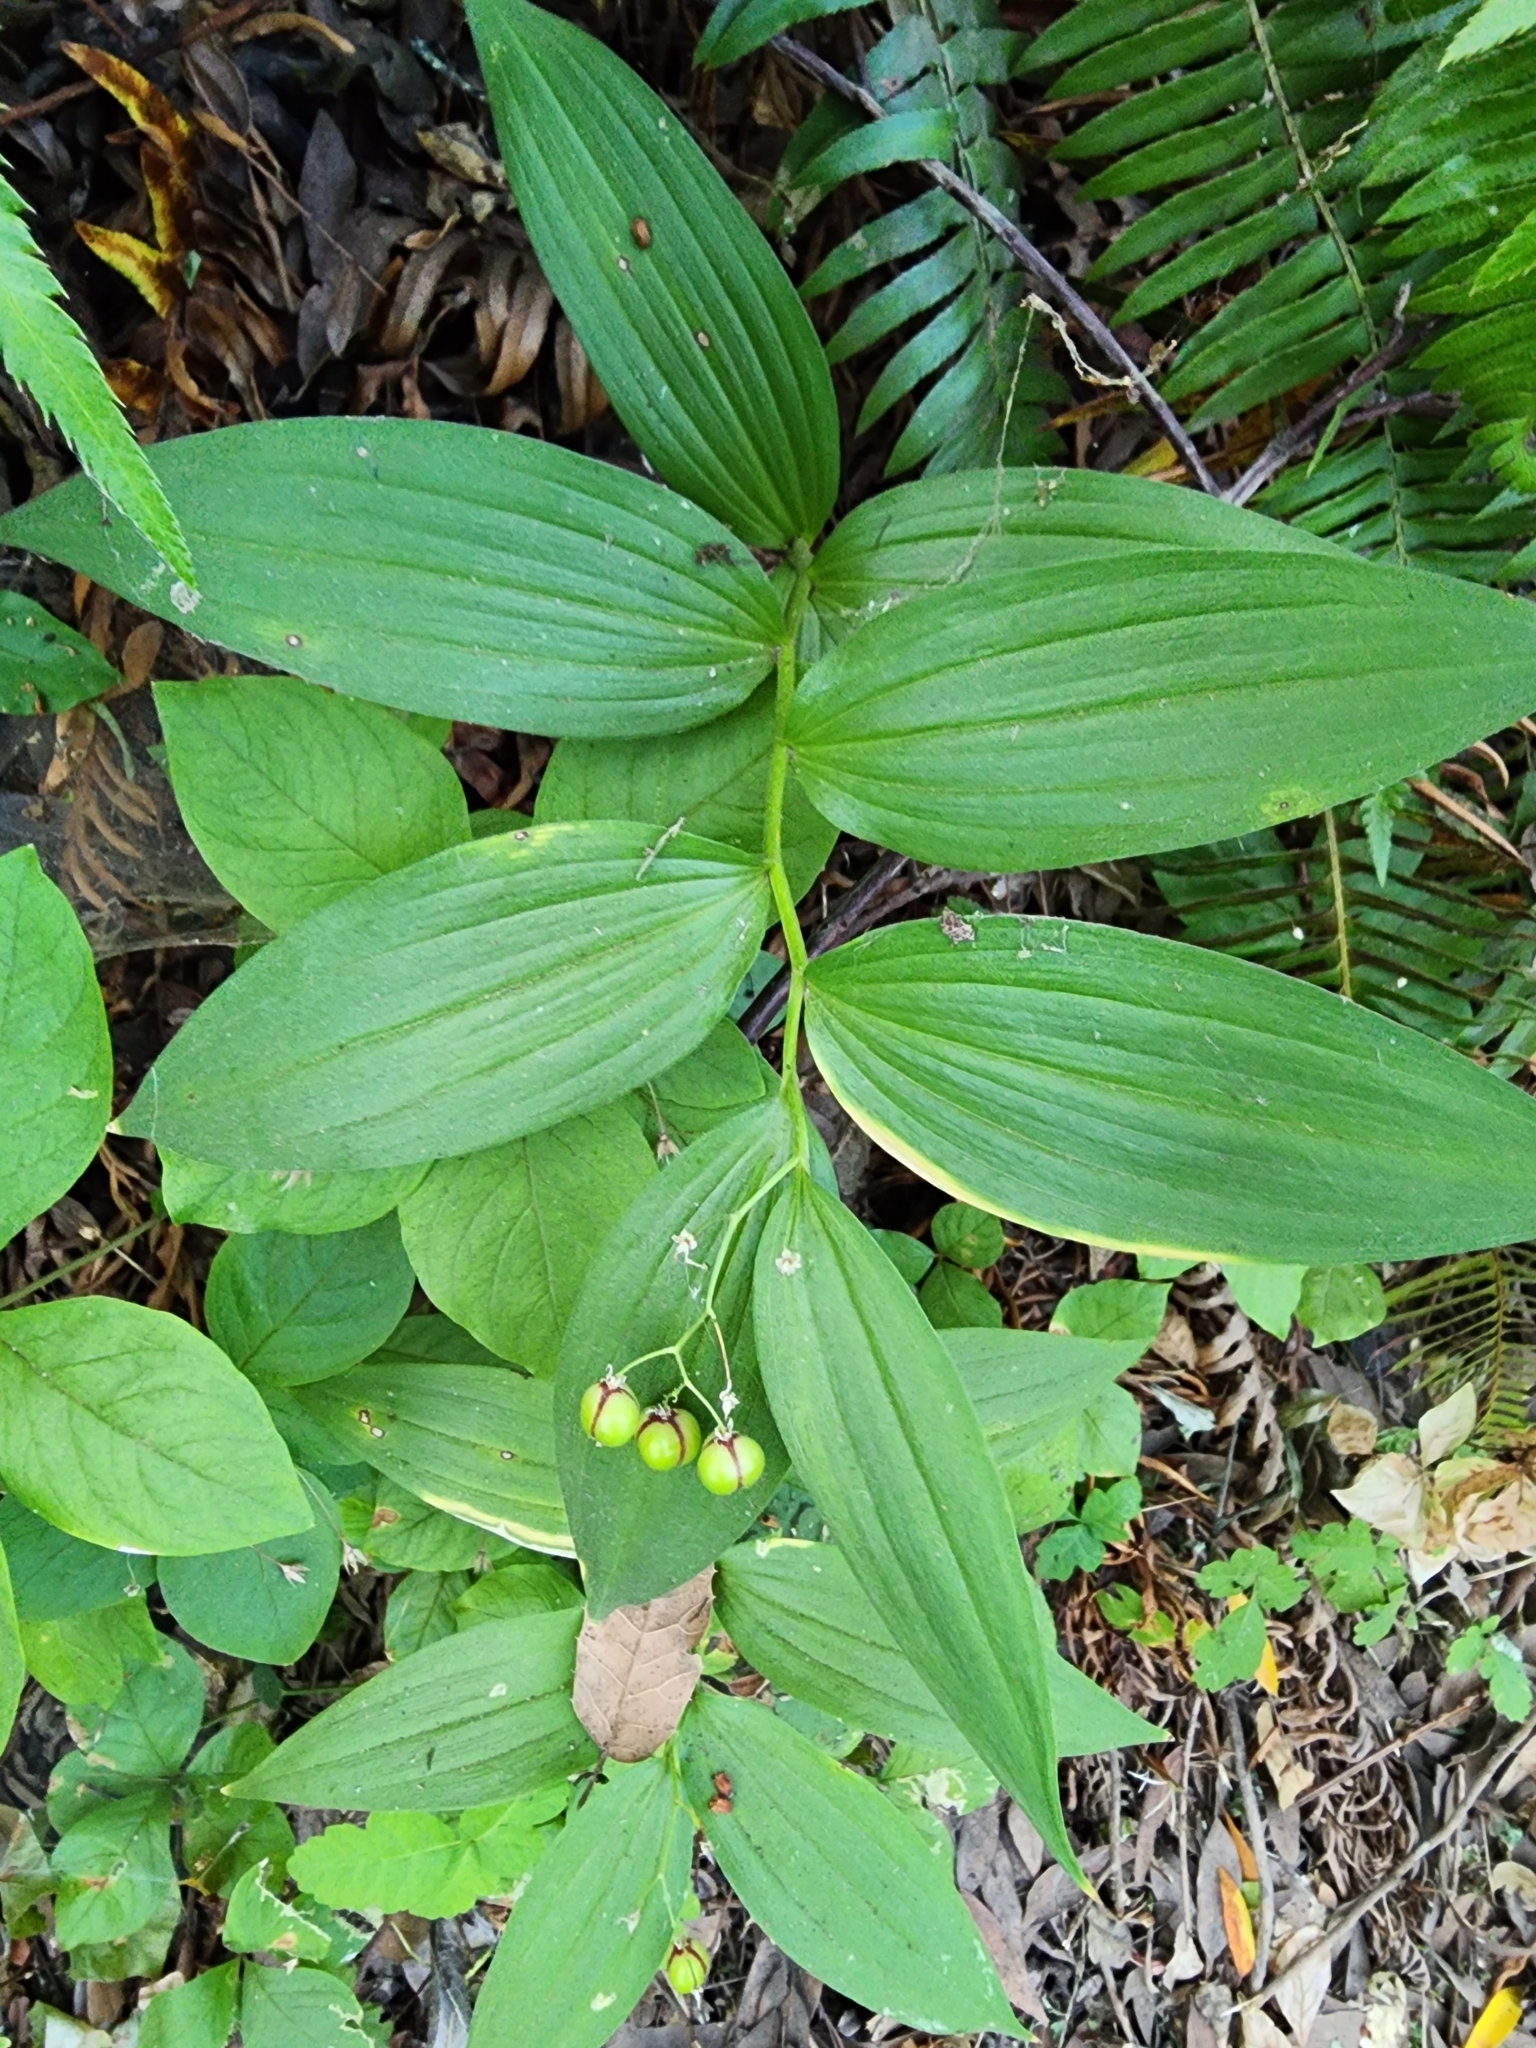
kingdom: Plantae
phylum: Tracheophyta
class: Liliopsida
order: Asparagales
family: Asparagaceae
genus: Maianthemum
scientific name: Maianthemum stellatum
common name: Little false solomon's seal
